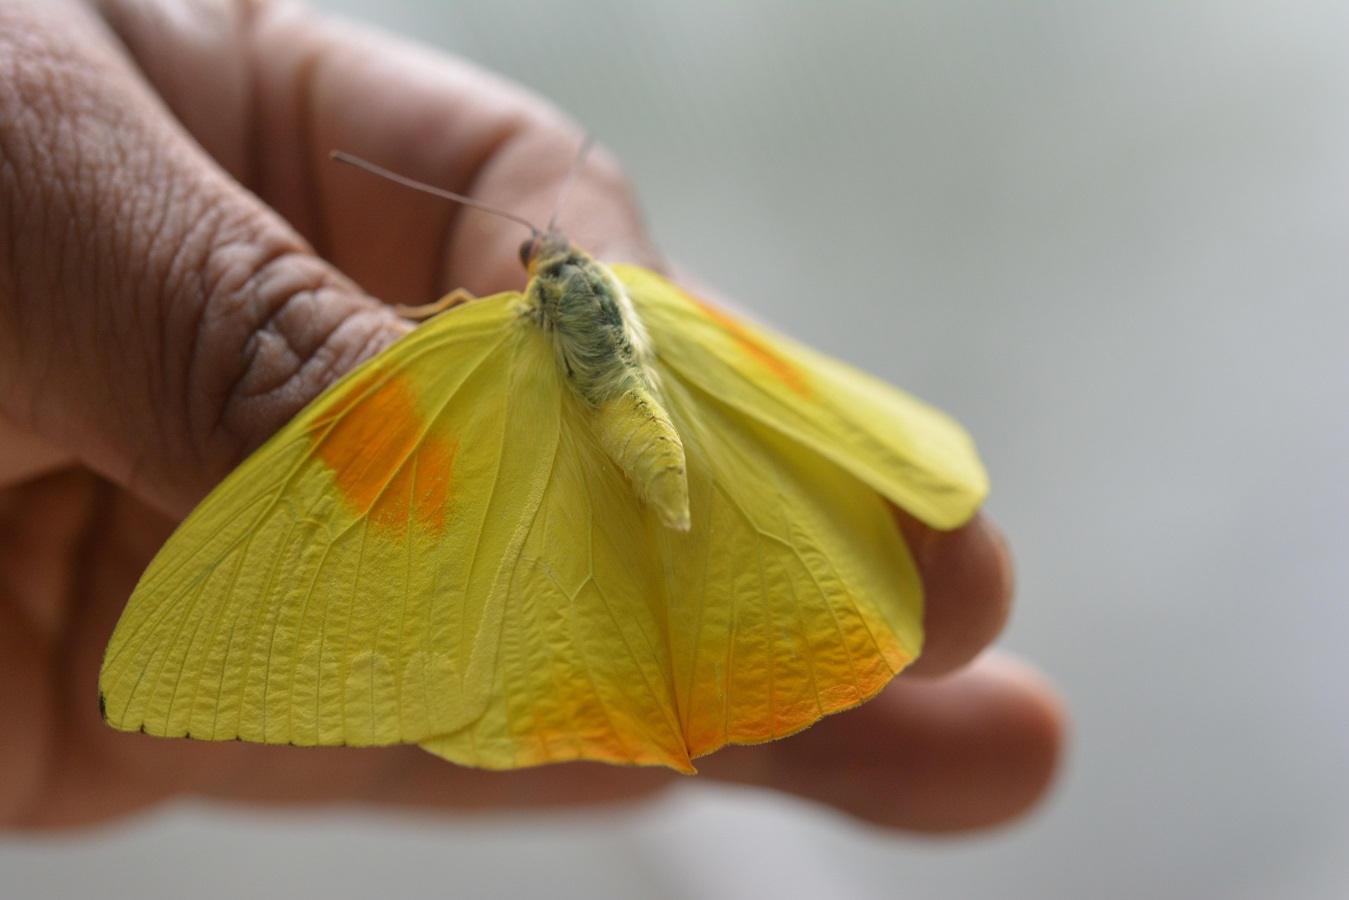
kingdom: Animalia
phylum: Arthropoda
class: Insecta
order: Lepidoptera
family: Pieridae
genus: Phoebis
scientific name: Phoebis philea
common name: Orange-barred giant sulphur
